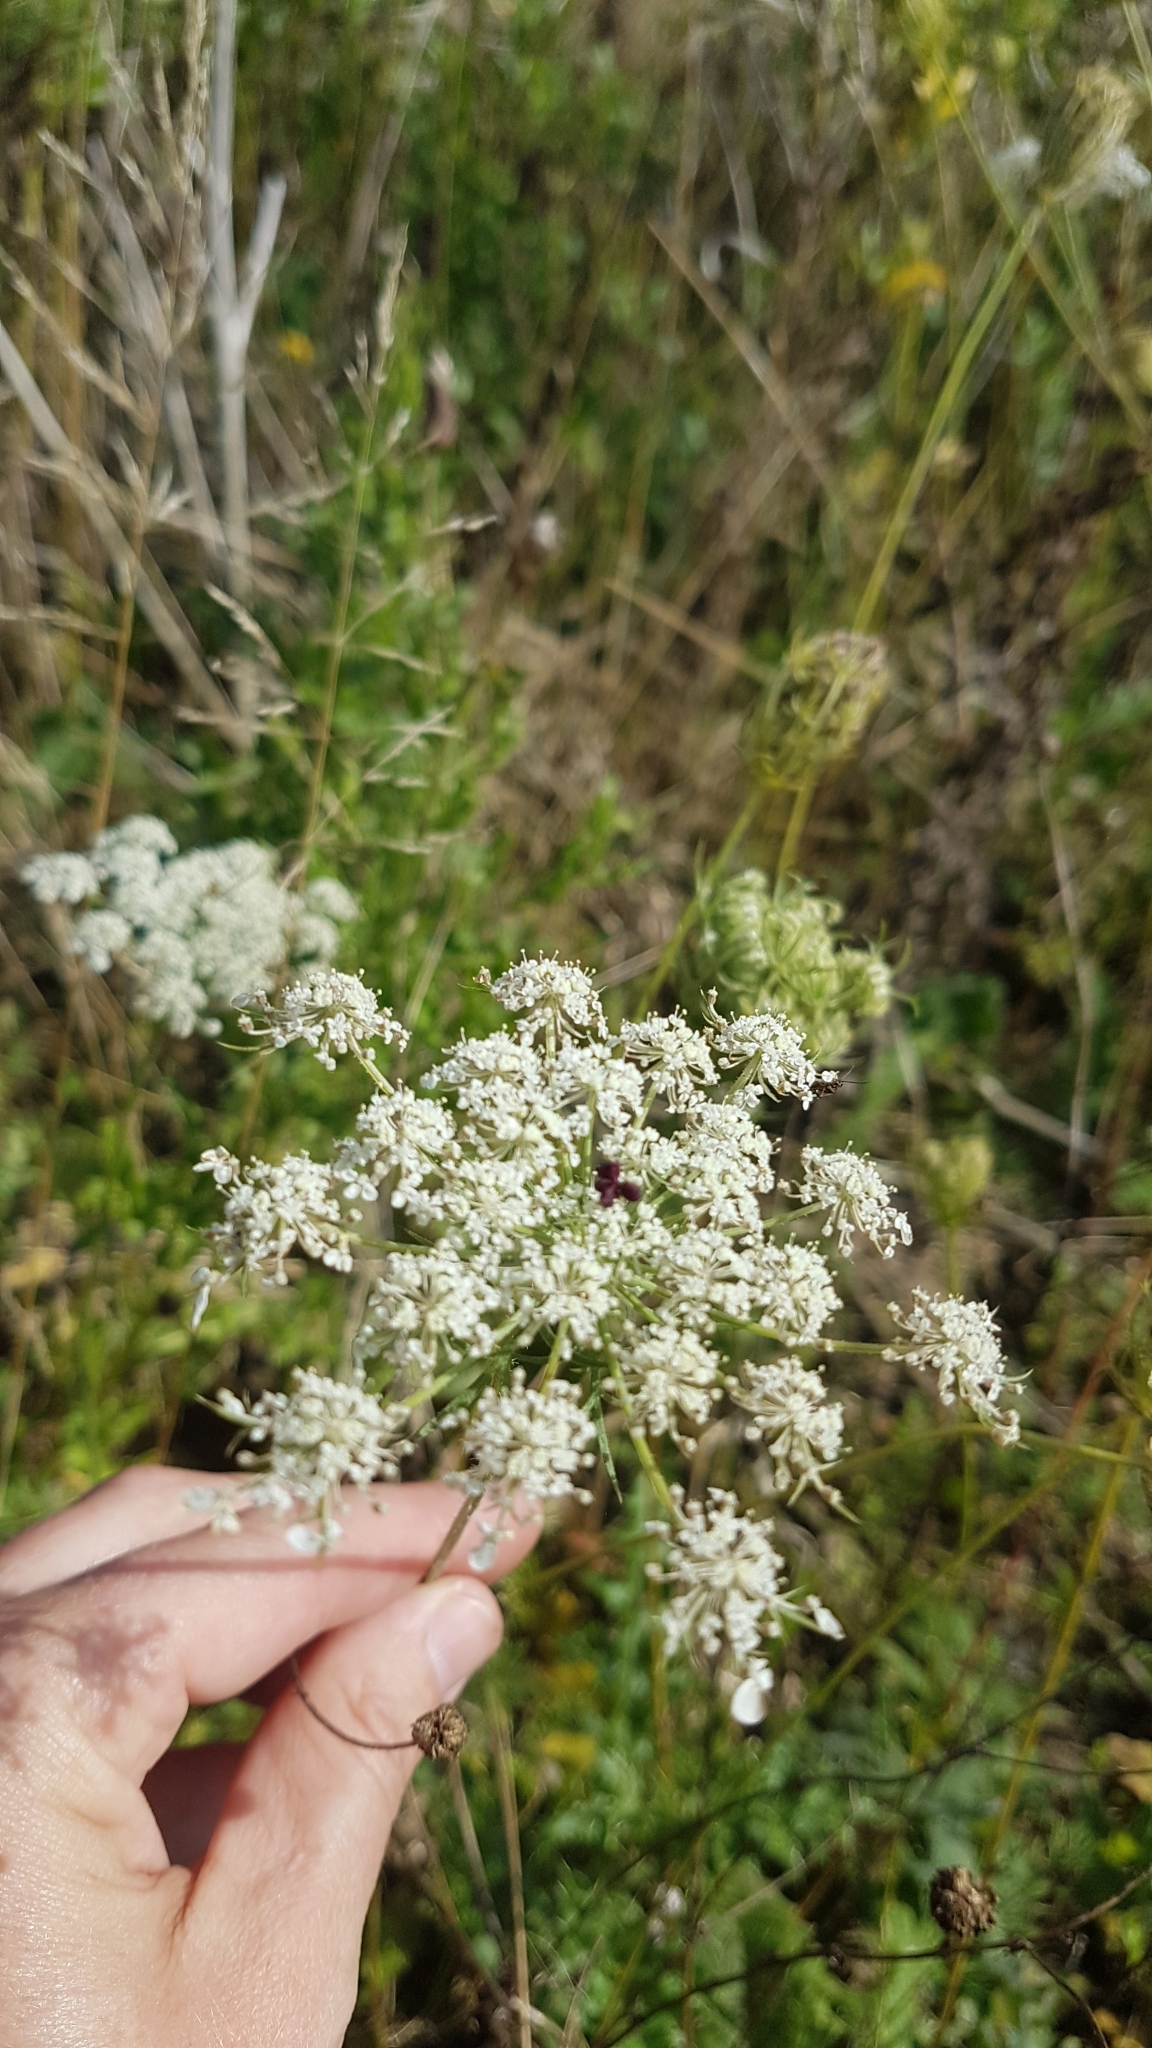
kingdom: Plantae
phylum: Tracheophyta
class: Magnoliopsida
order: Apiales
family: Apiaceae
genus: Daucus
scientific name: Daucus carota
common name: Wild carrot
